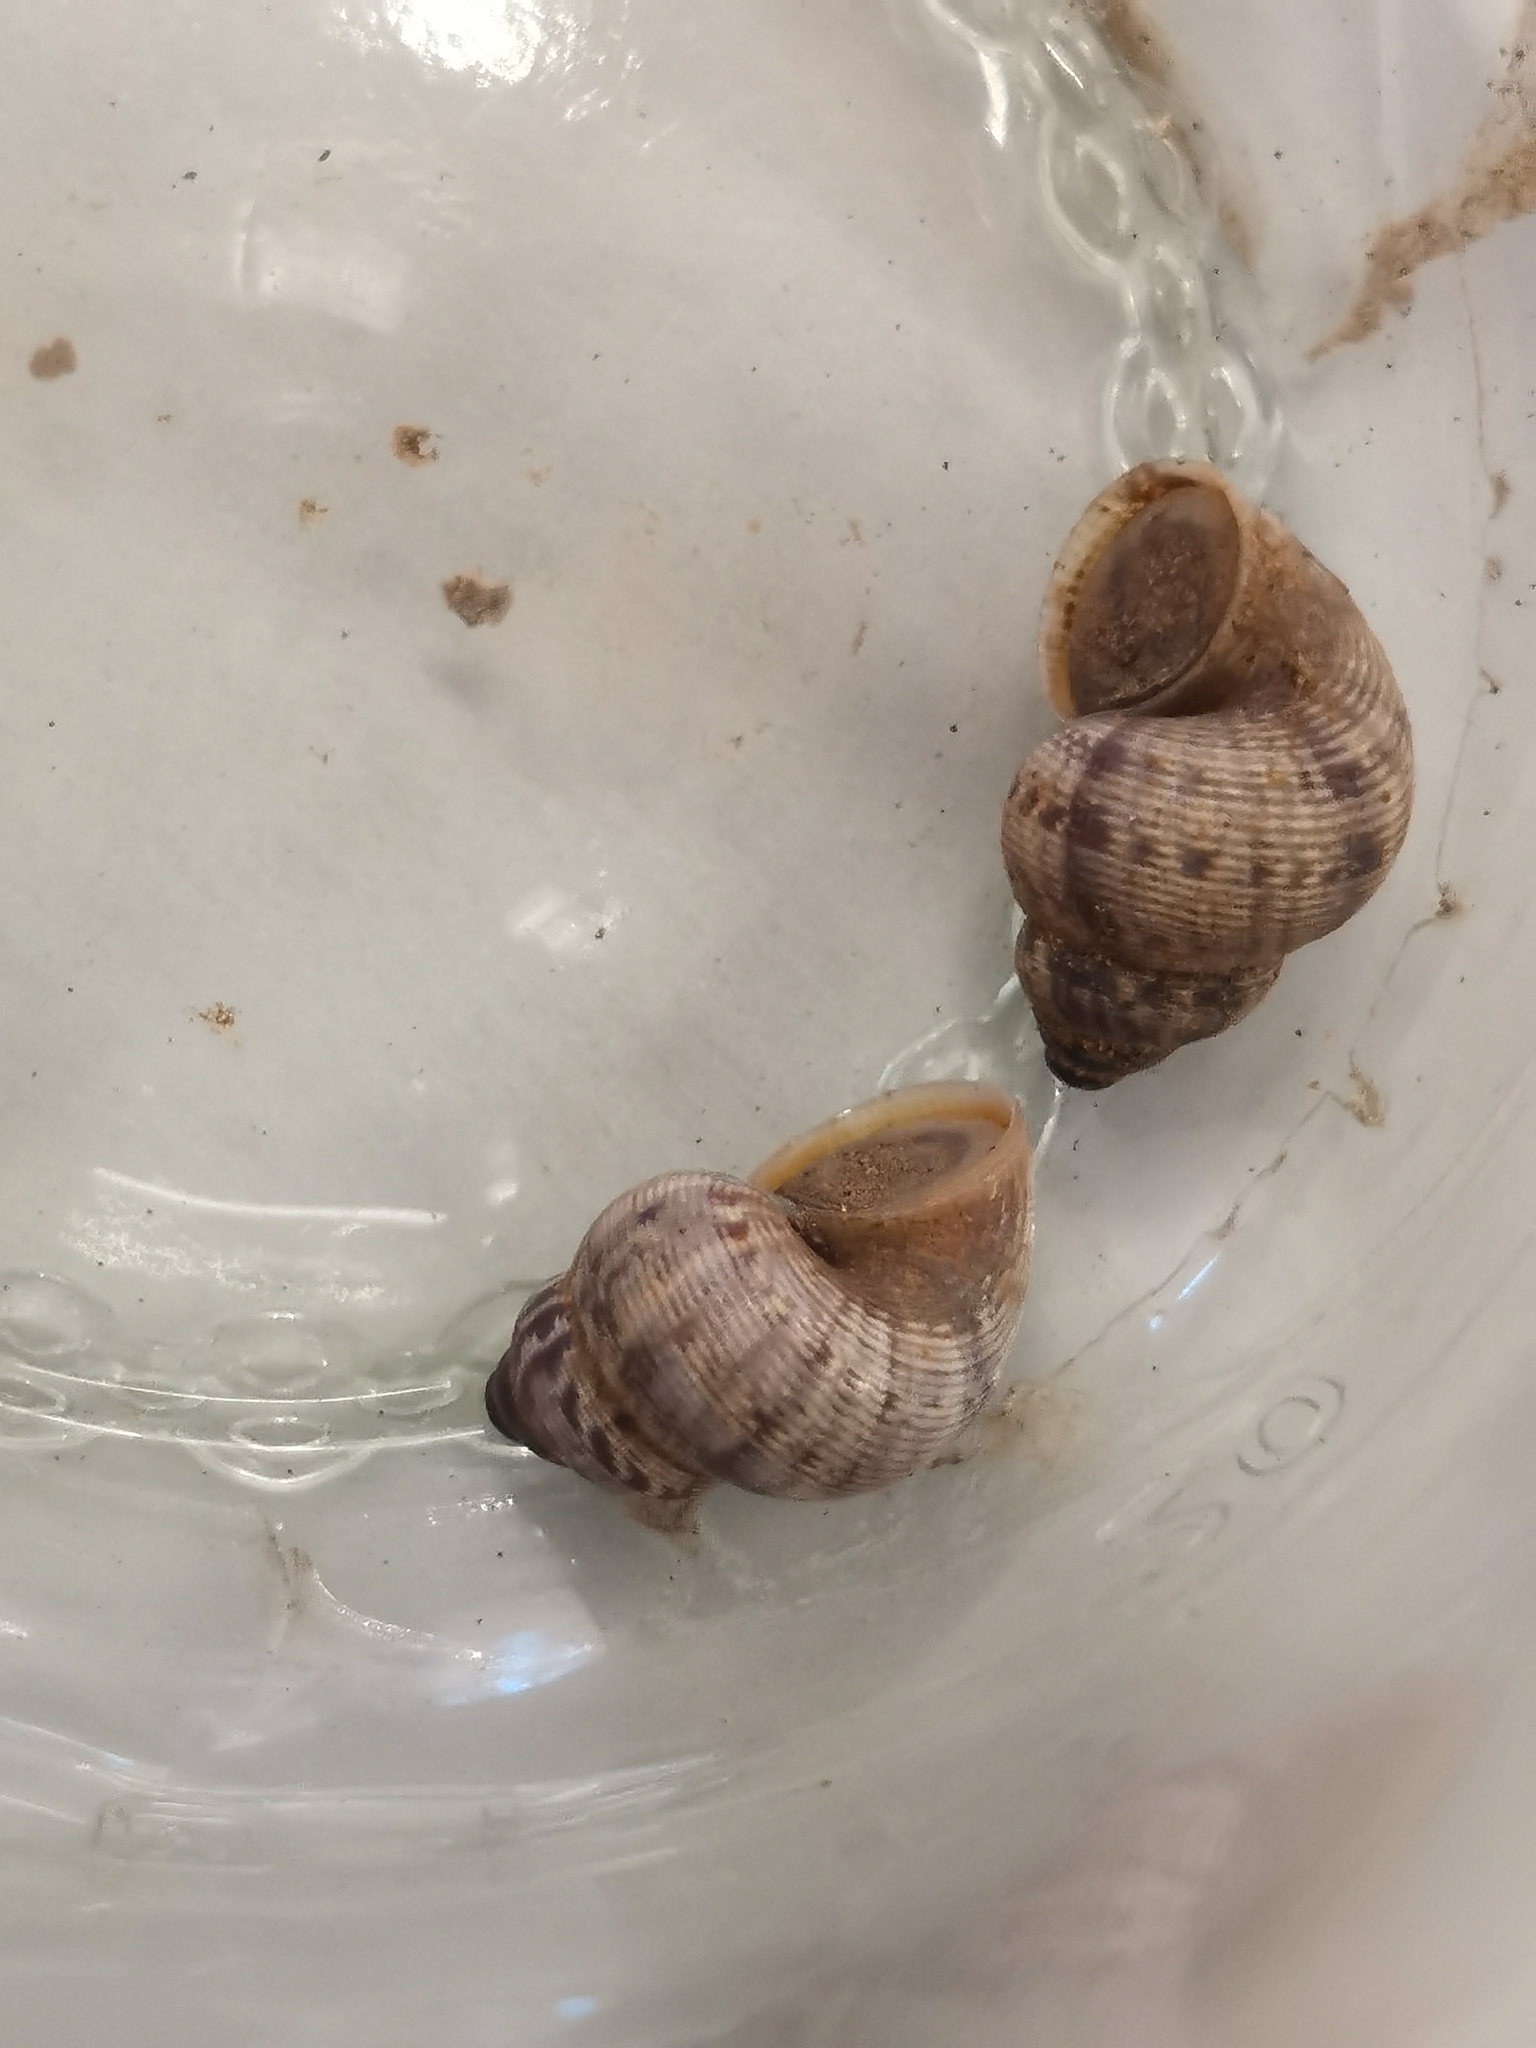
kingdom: Animalia
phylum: Mollusca
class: Gastropoda
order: Littorinimorpha
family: Pomatiidae
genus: Pomatias
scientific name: Pomatias elegans
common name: Red-mouthed snail
